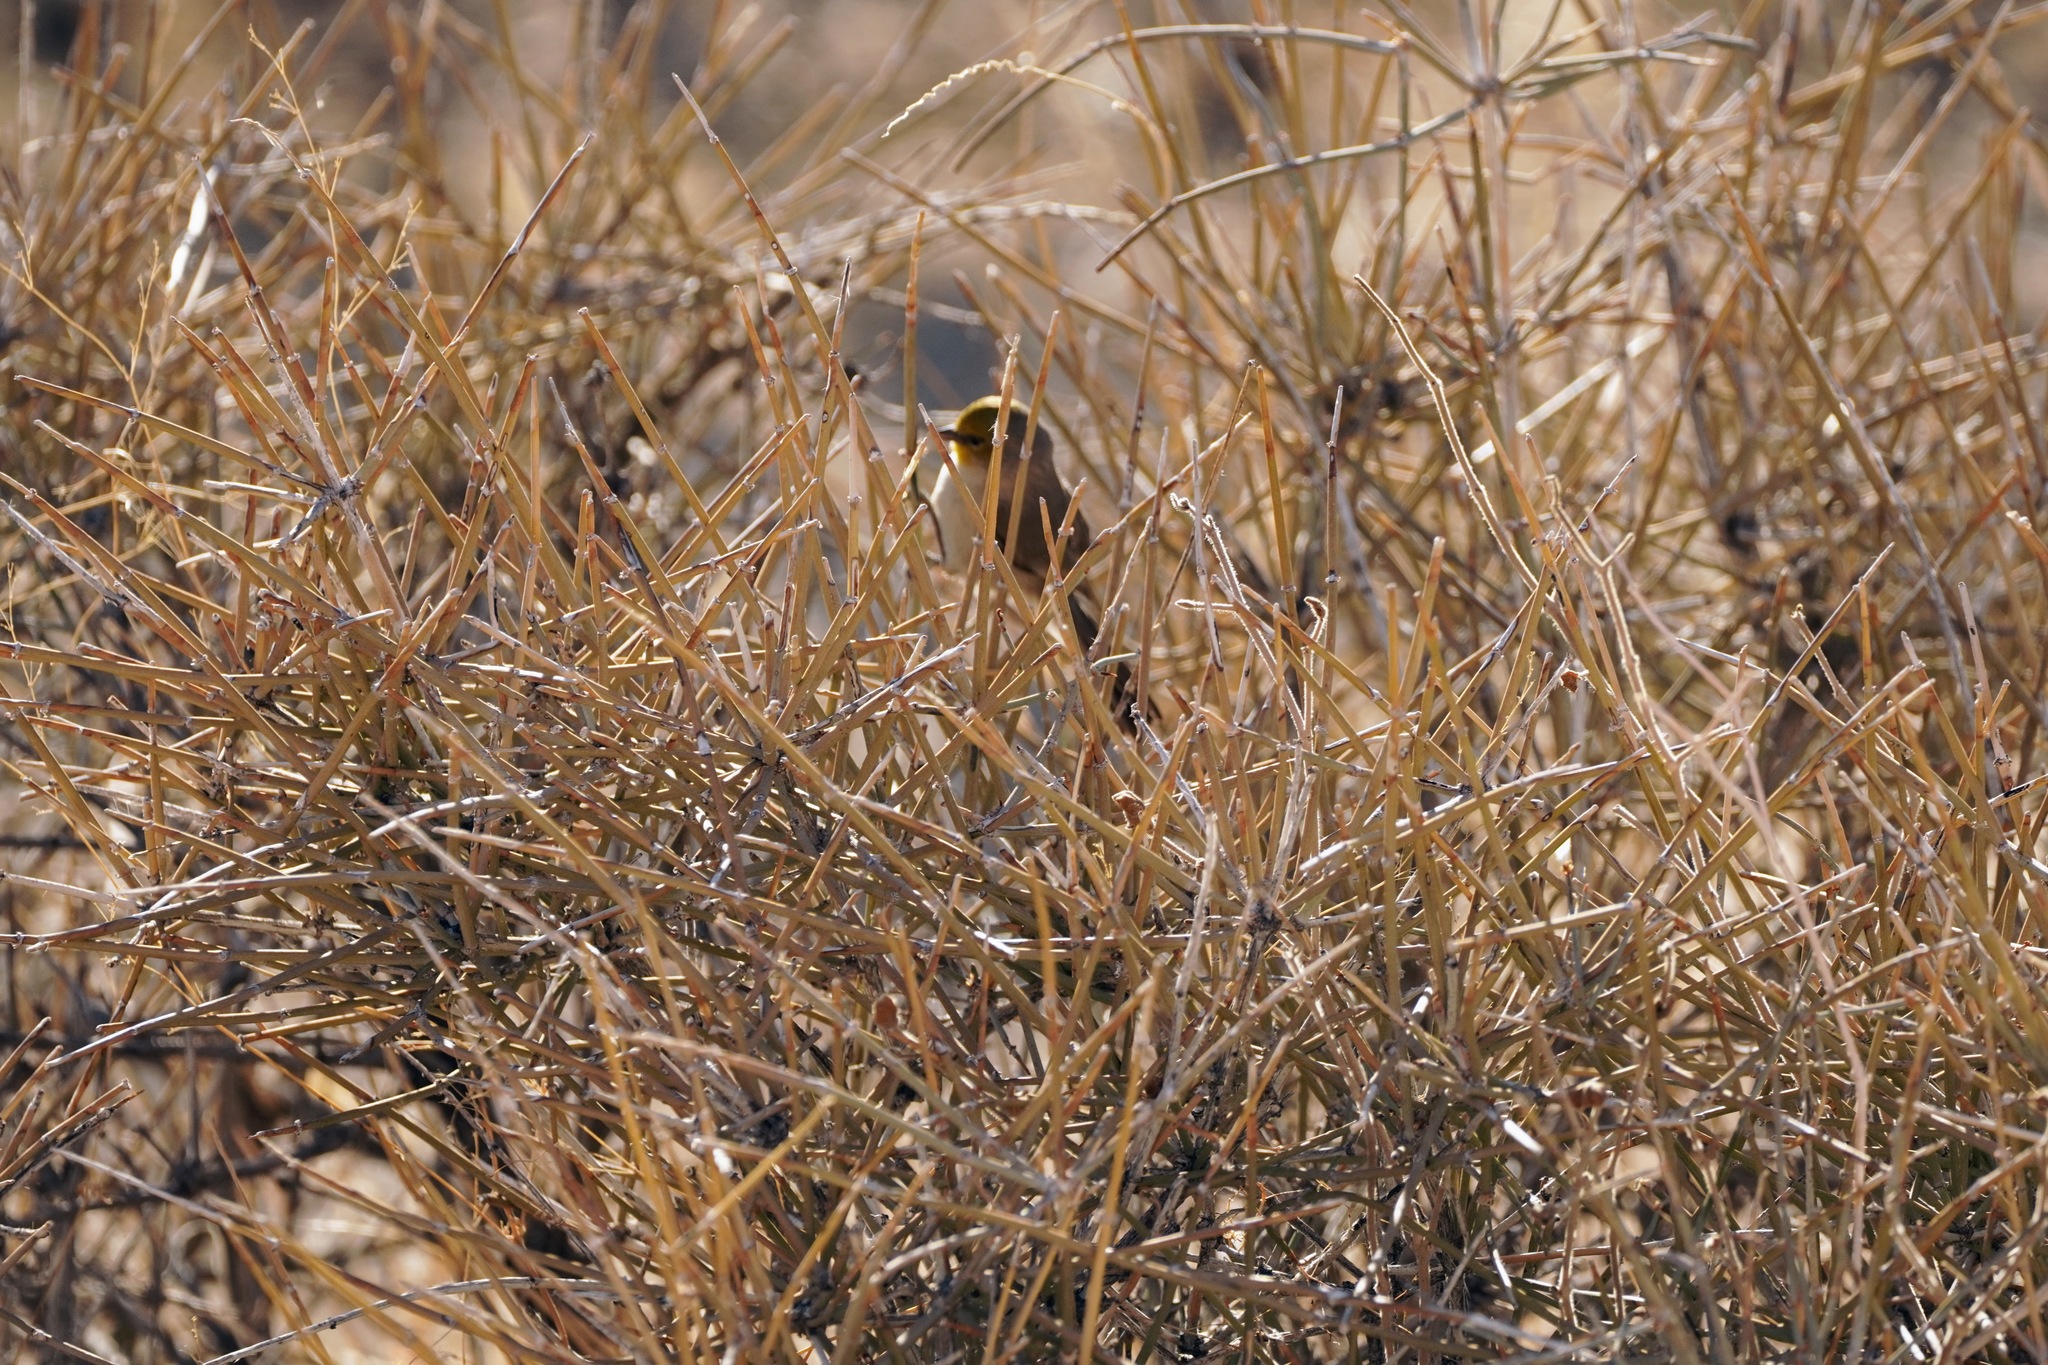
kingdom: Animalia
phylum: Chordata
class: Aves
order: Passeriformes
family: Remizidae
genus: Auriparus
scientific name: Auriparus flaviceps
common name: Verdin
